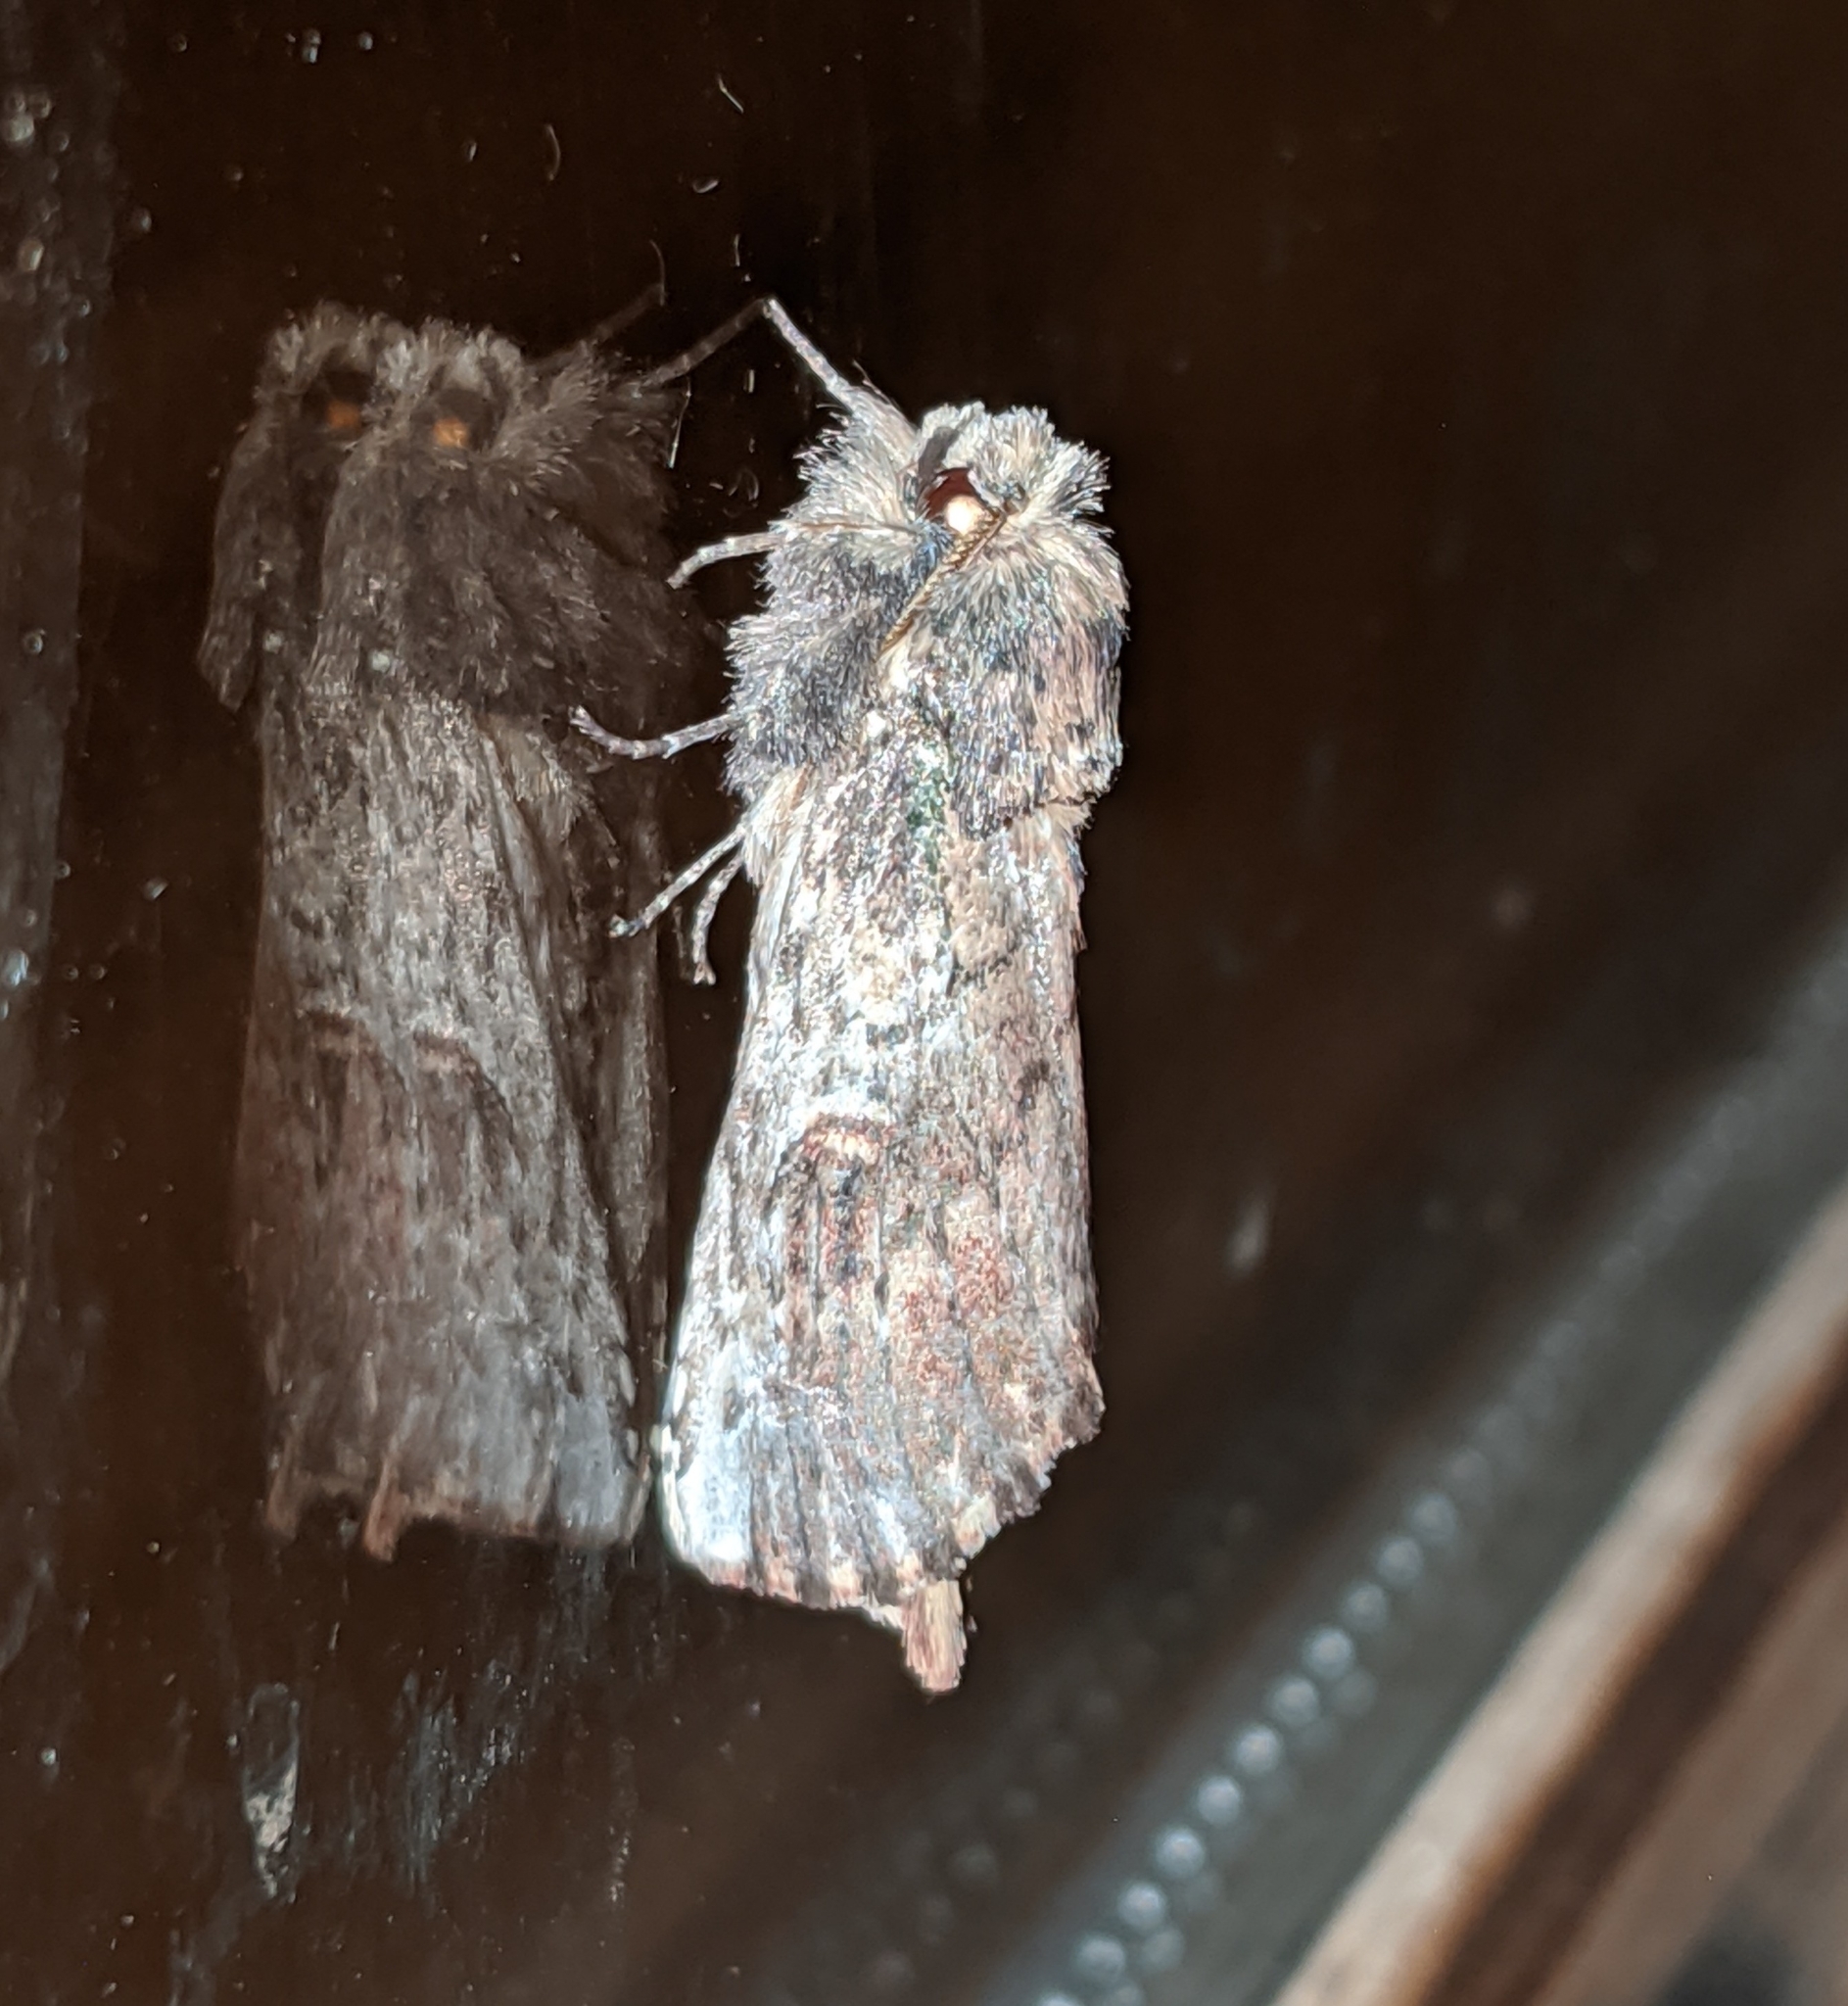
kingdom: Animalia
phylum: Arthropoda
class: Insecta
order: Lepidoptera
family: Notodontidae
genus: Schizura
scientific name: Schizura ipomaeae
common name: Morning-glory prominent
